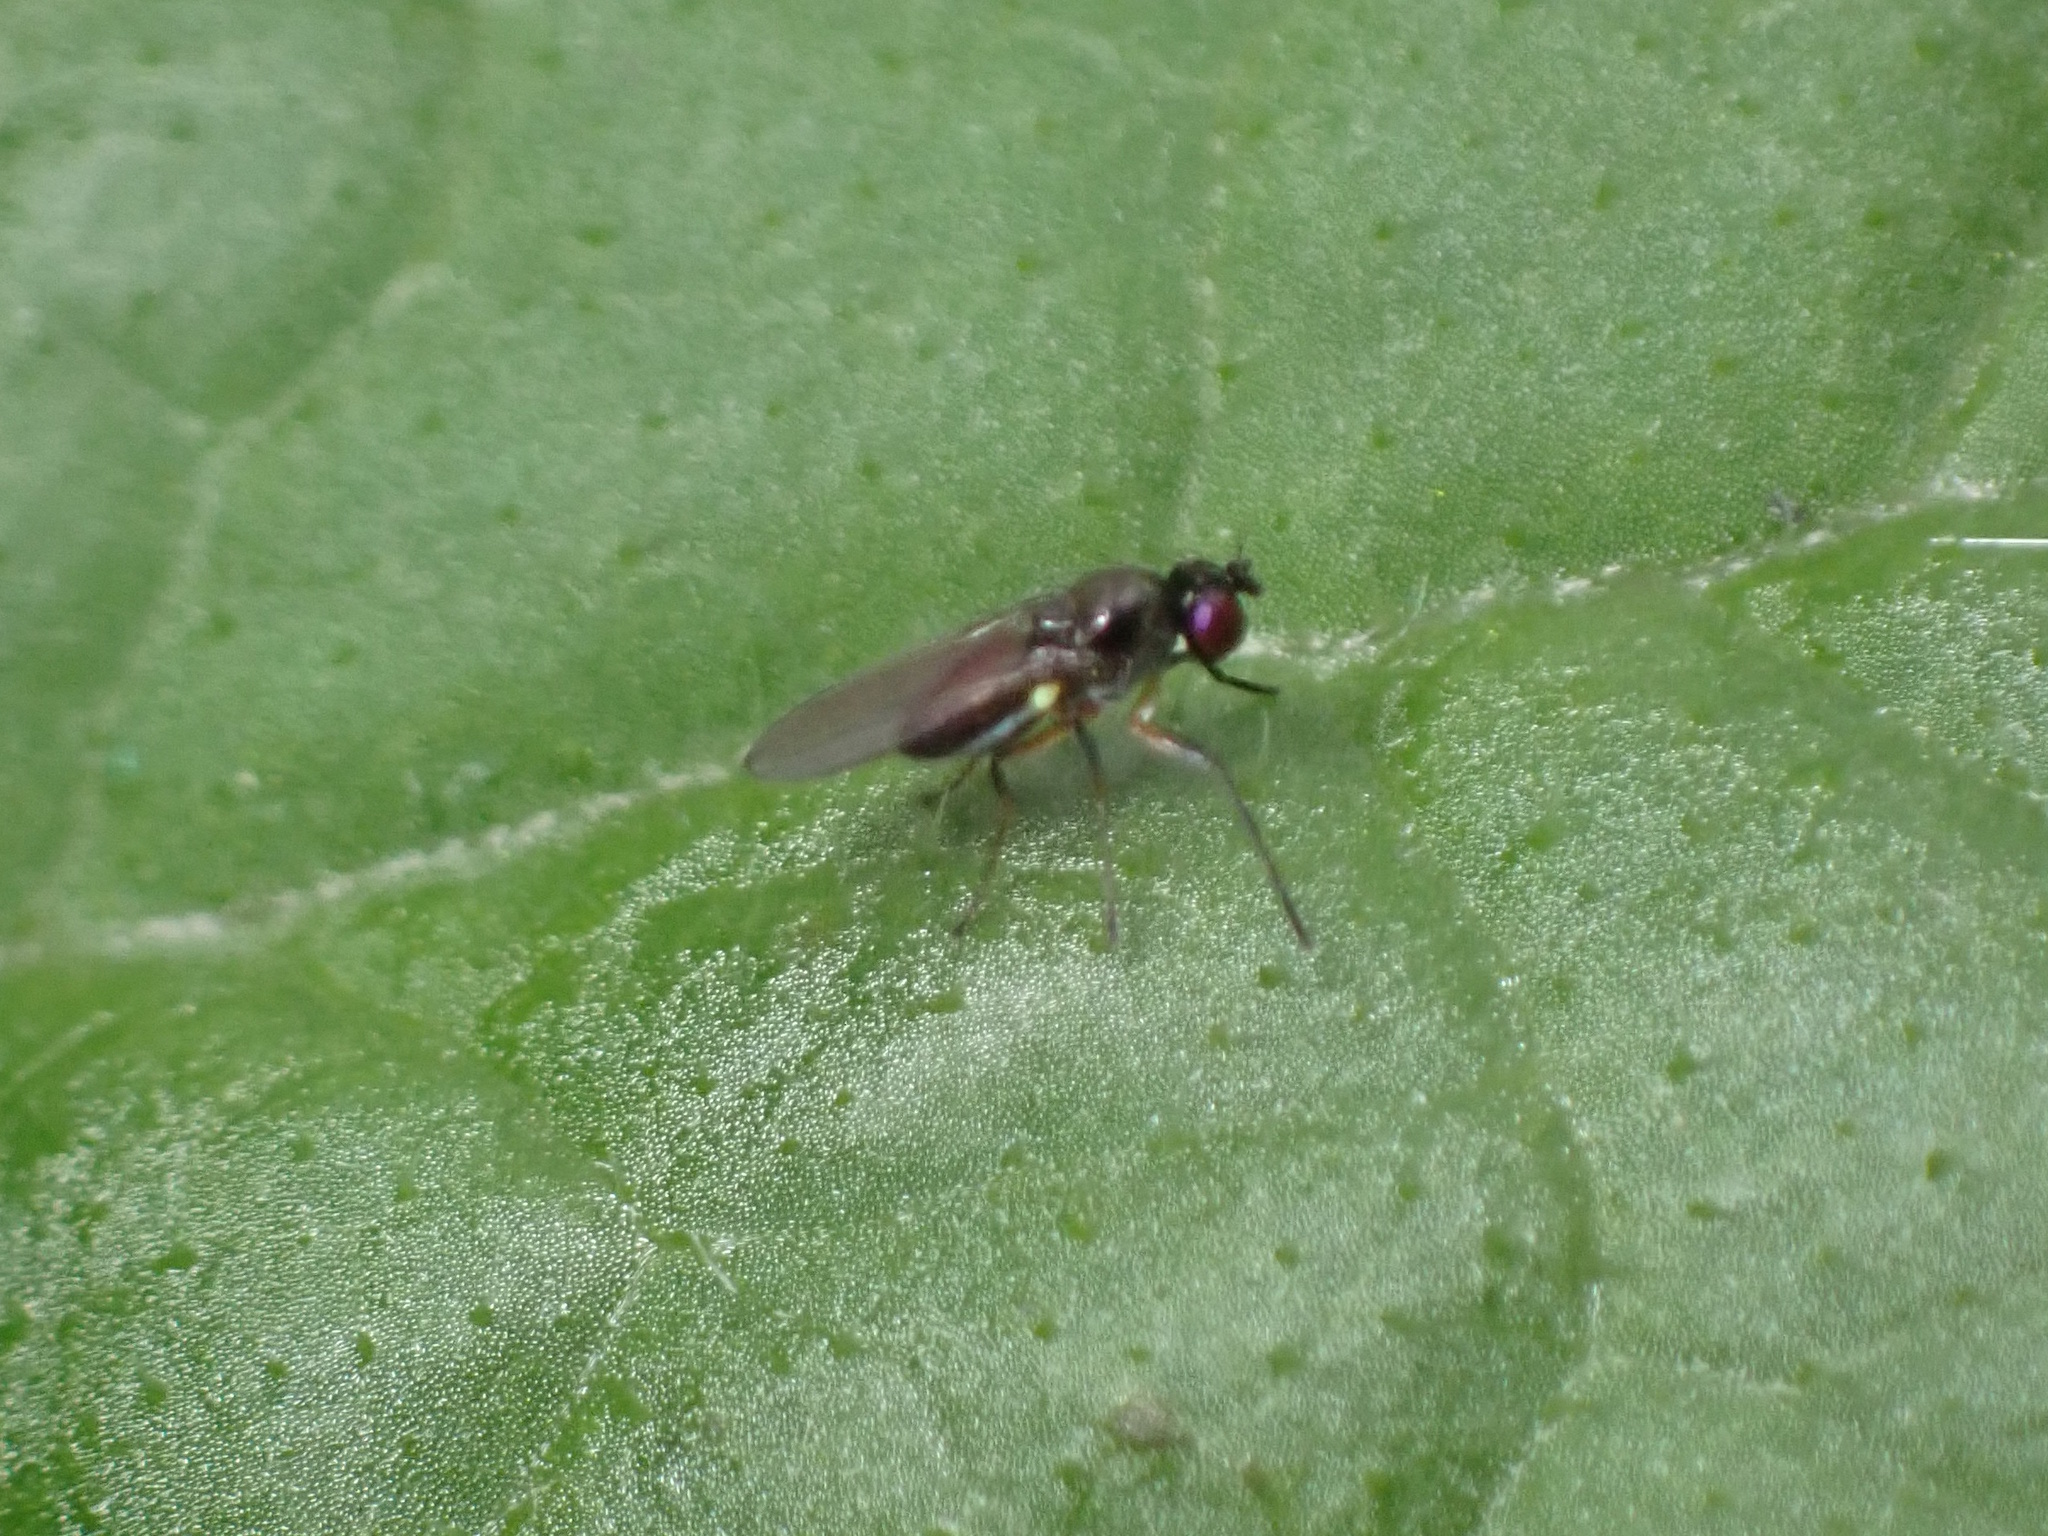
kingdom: Animalia
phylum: Arthropoda
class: Insecta
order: Diptera
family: Ephydridae
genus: Hydrellia
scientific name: Hydrellia tritici
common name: Shore fly
